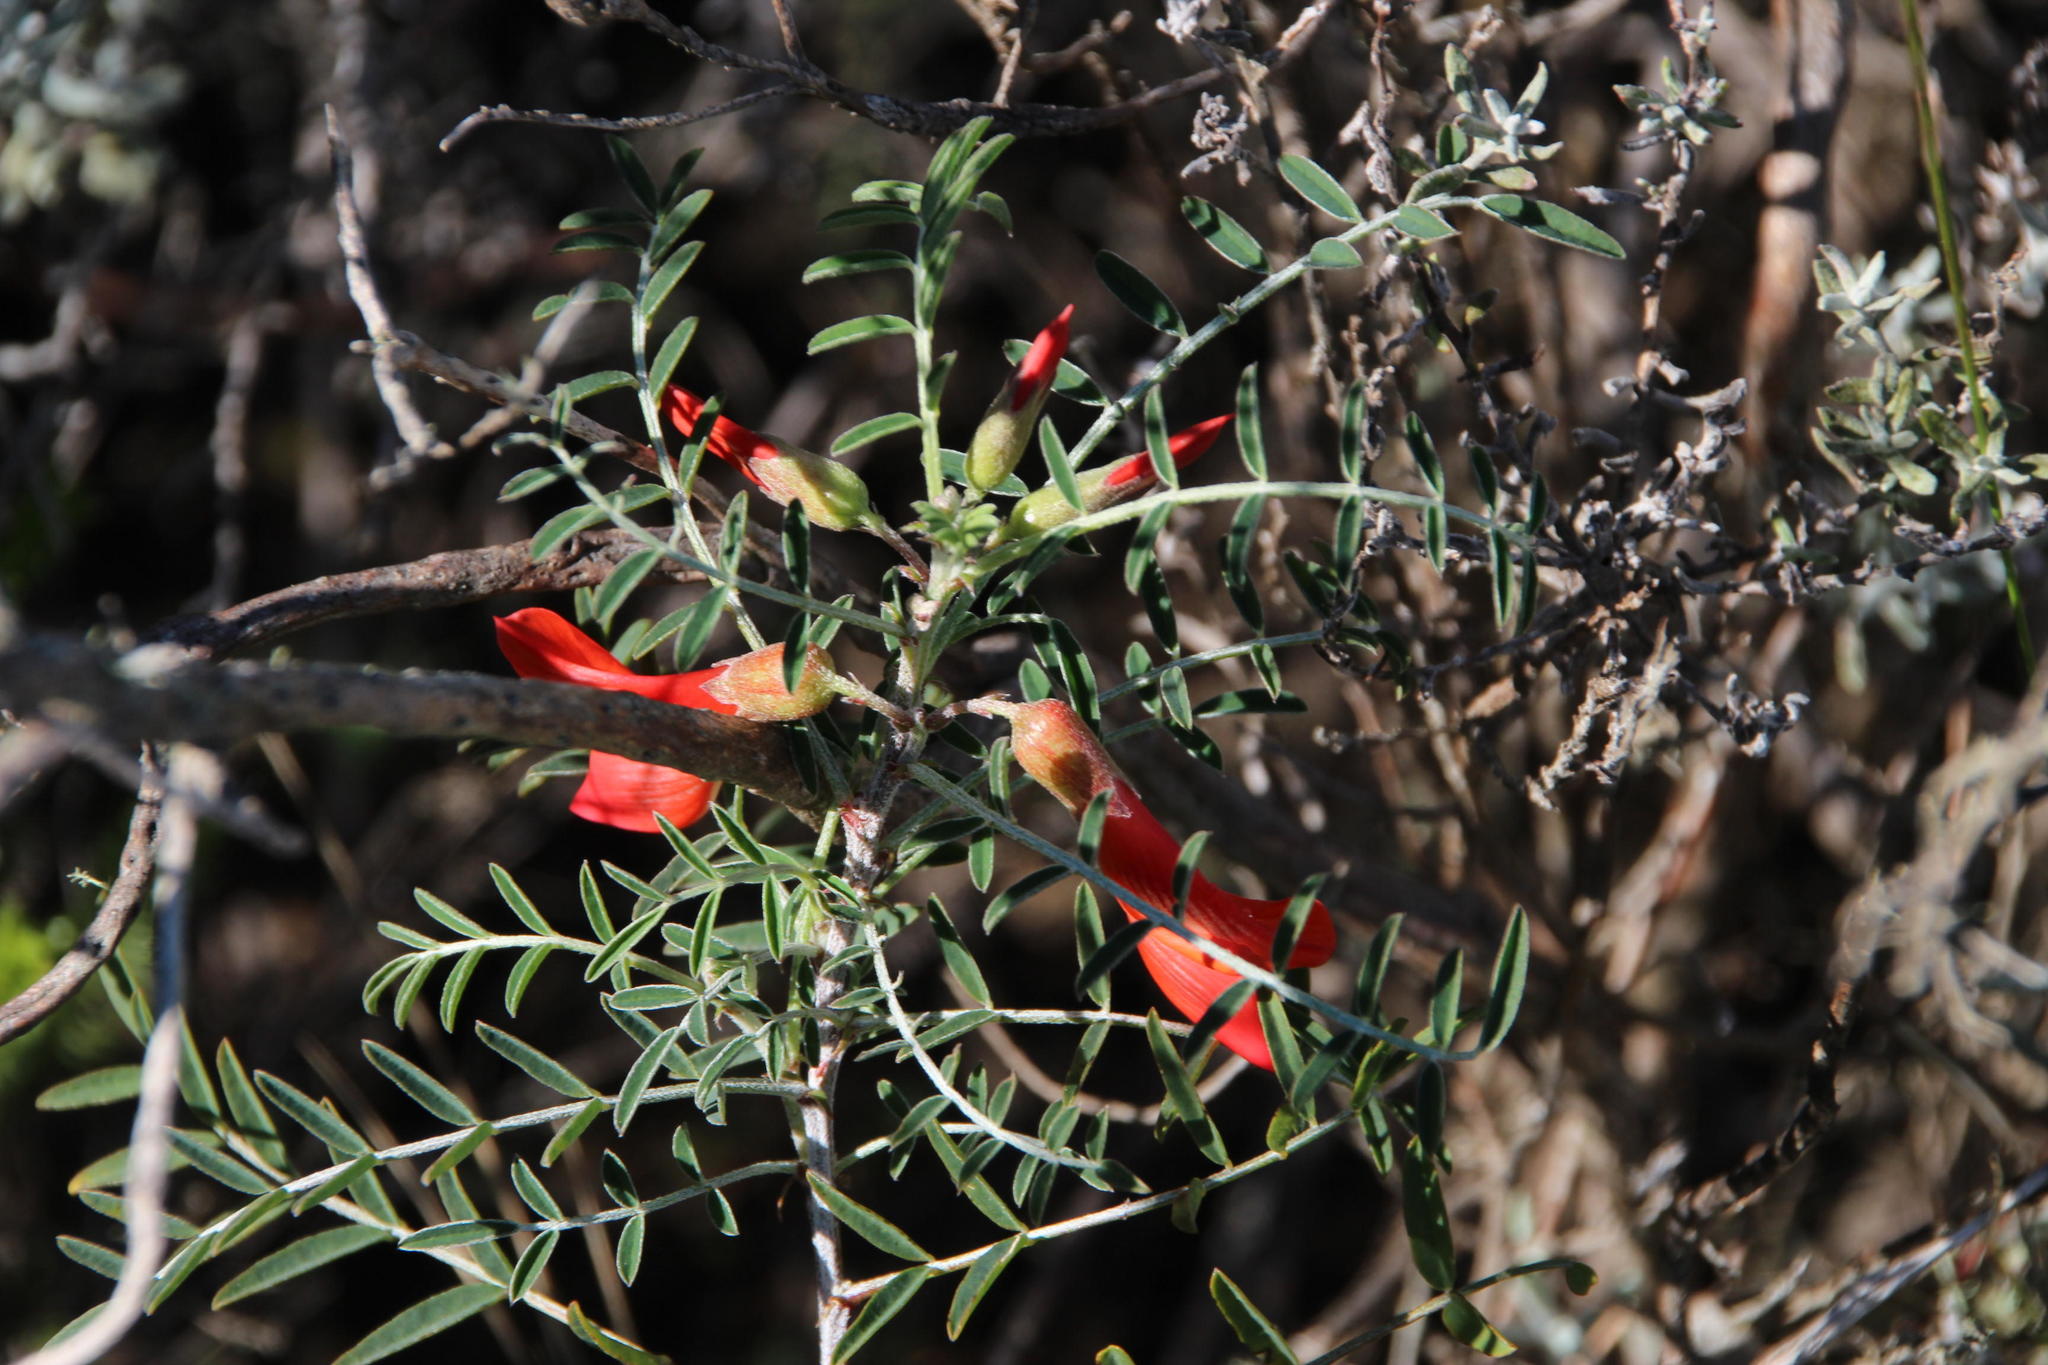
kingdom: Plantae
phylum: Tracheophyta
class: Magnoliopsida
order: Fabales
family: Fabaceae
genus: Lessertia
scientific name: Lessertia frutescens
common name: Balloon-pea
